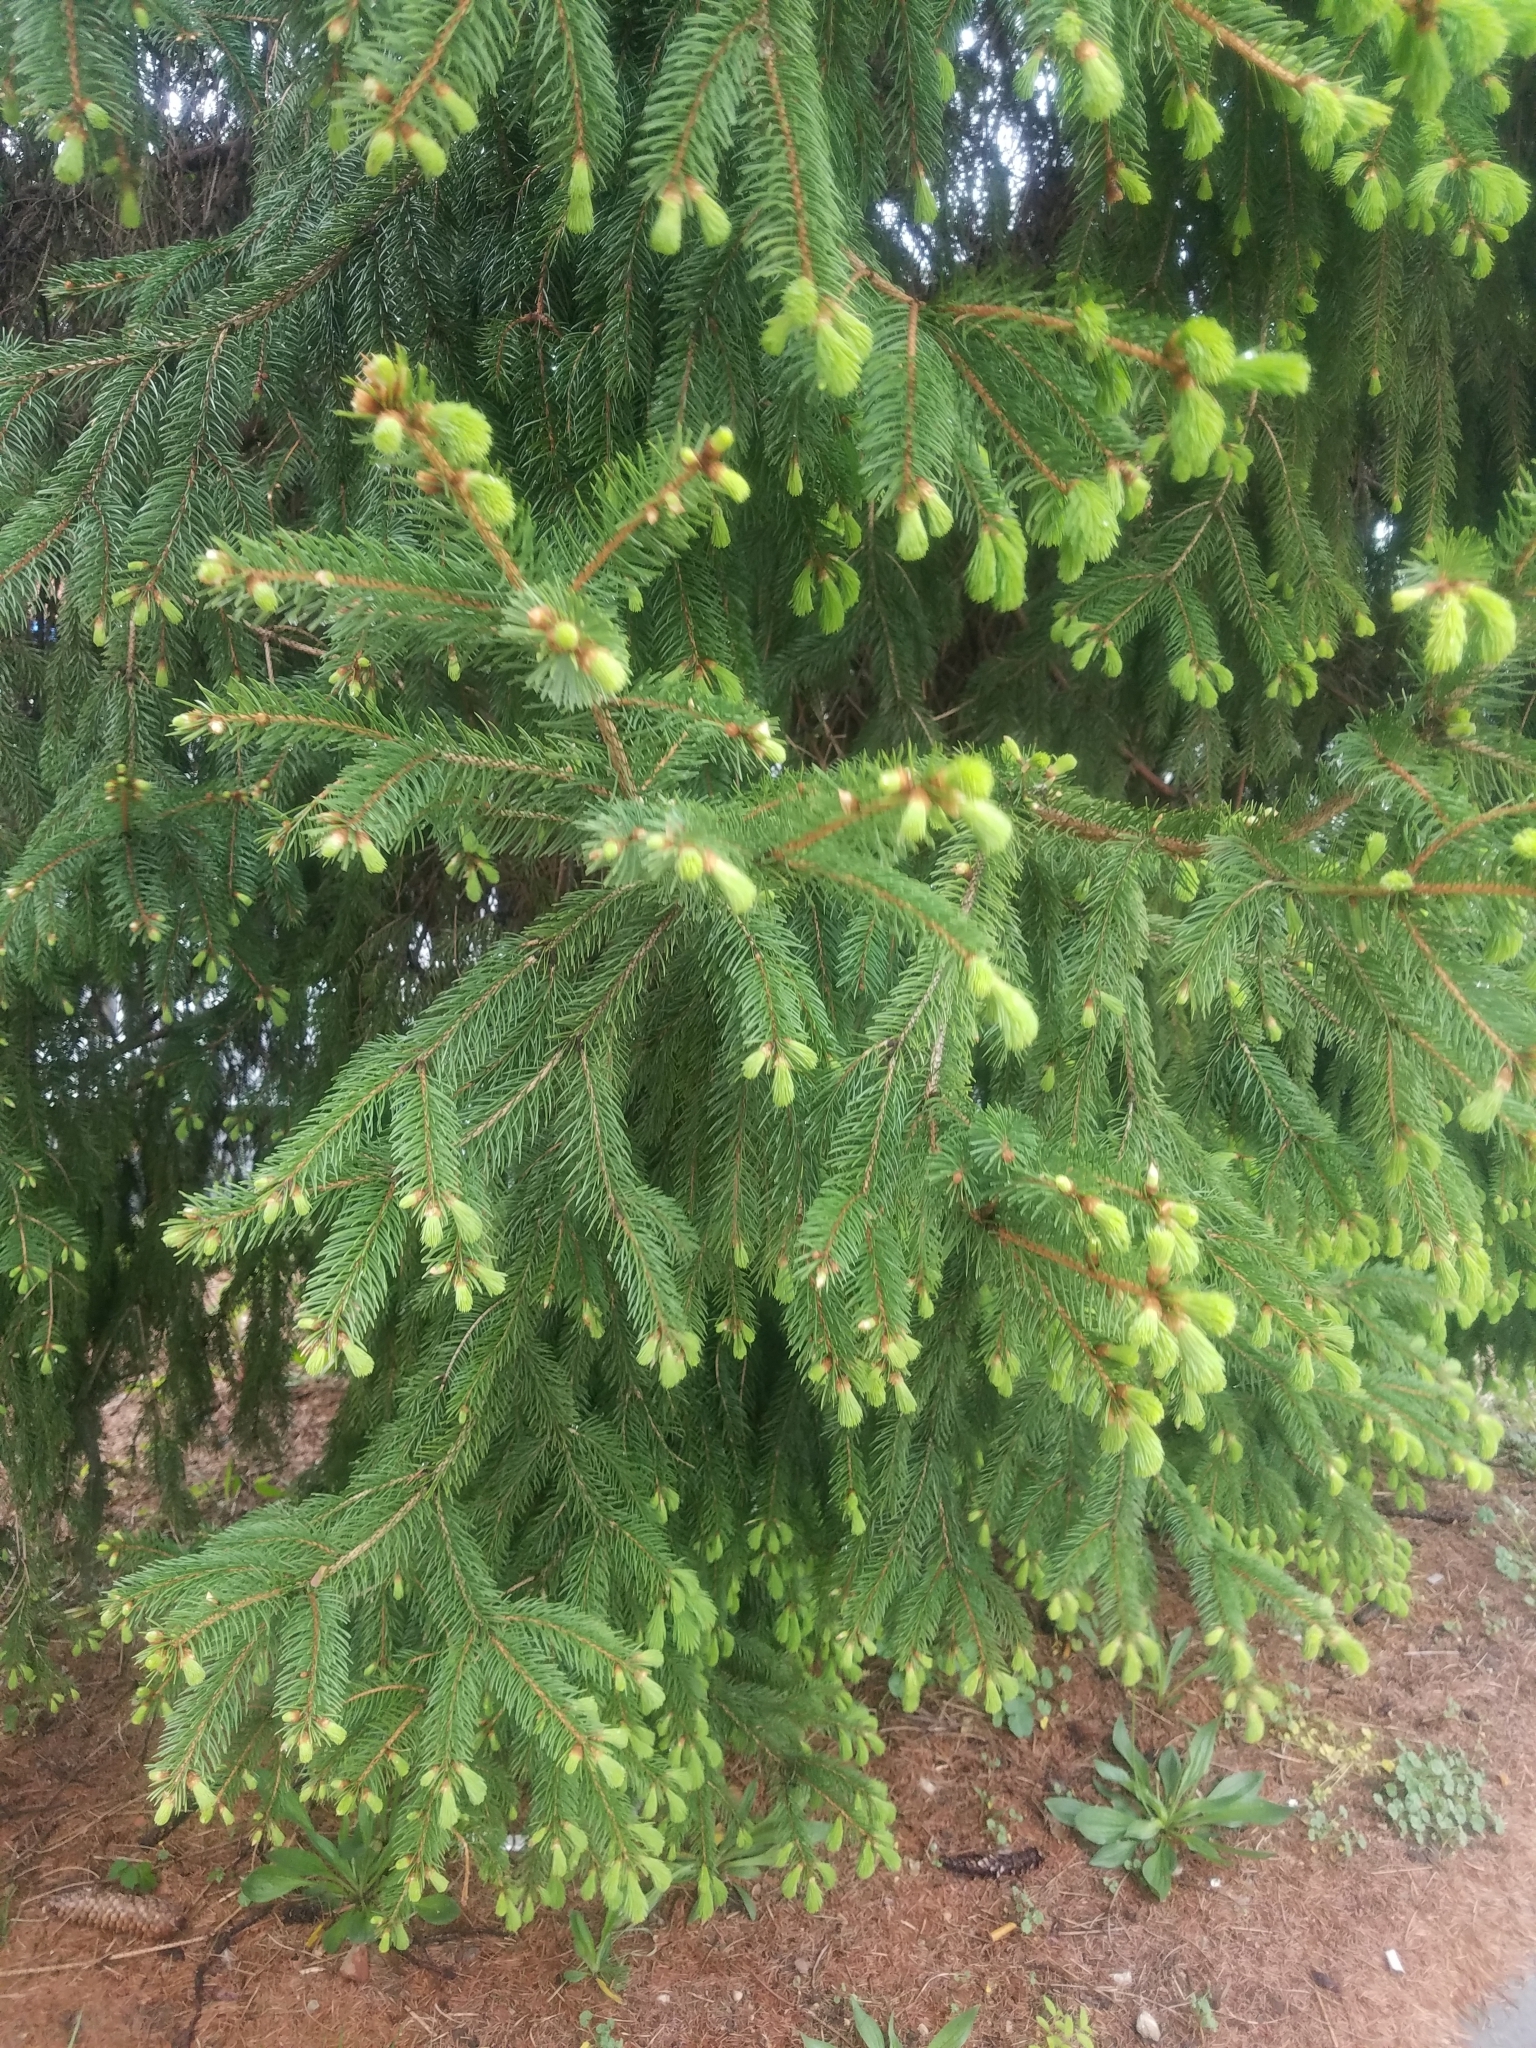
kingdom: Plantae
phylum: Tracheophyta
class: Pinopsida
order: Pinales
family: Pinaceae
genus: Picea
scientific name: Picea abies
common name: Norway spruce
